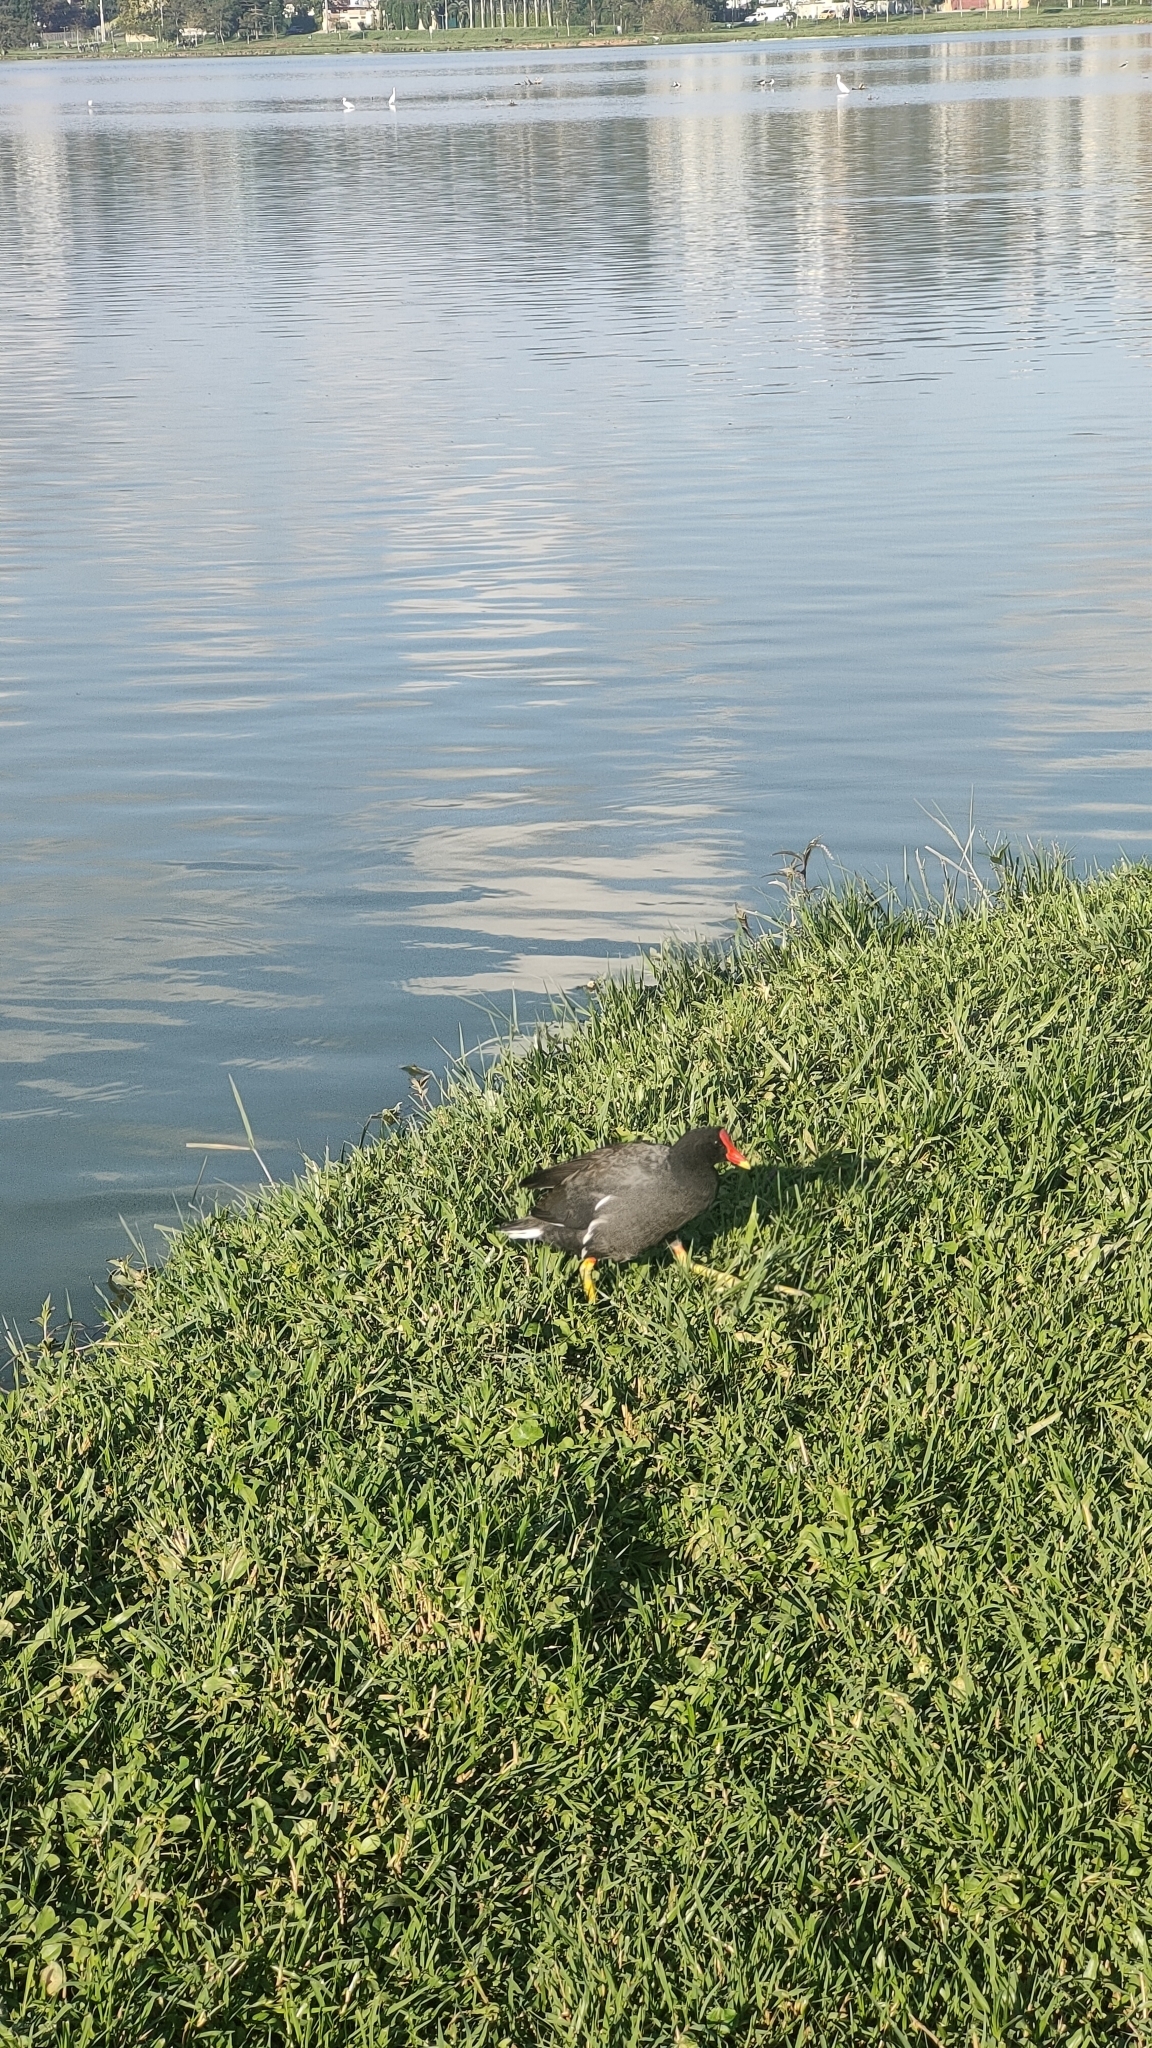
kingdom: Animalia
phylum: Chordata
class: Aves
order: Gruiformes
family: Rallidae
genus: Gallinula
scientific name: Gallinula chloropus
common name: Common moorhen
